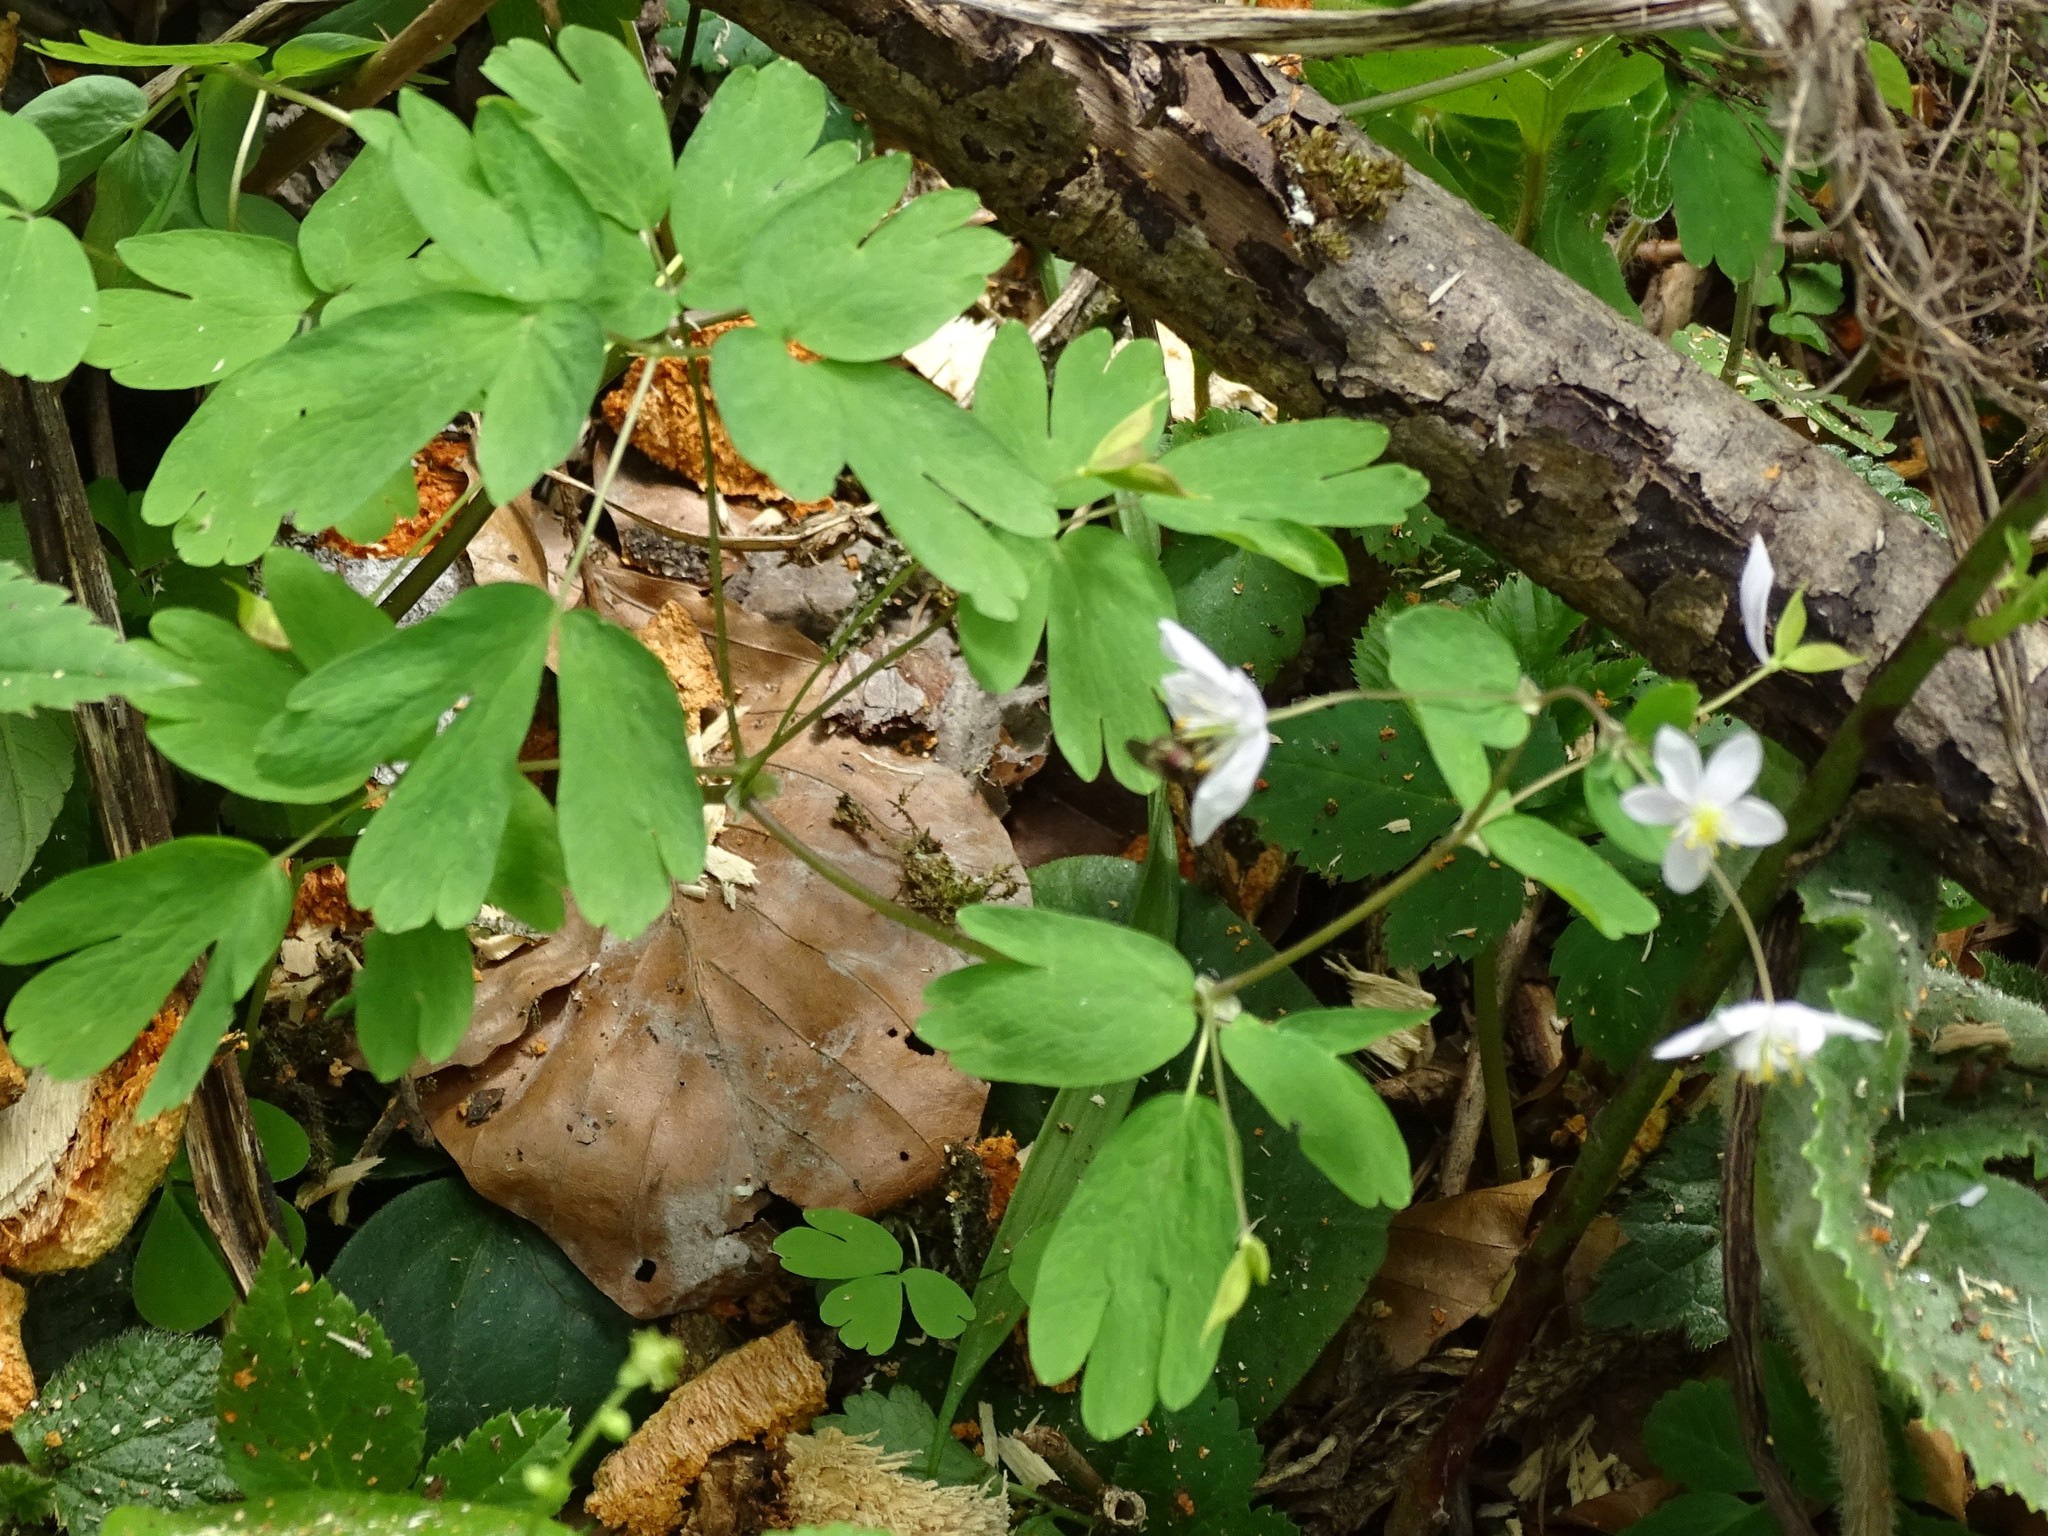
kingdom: Plantae
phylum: Tracheophyta
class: Magnoliopsida
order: Ranunculales
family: Ranunculaceae
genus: Isopyrum
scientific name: Isopyrum thalictroides
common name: Isopyrum
